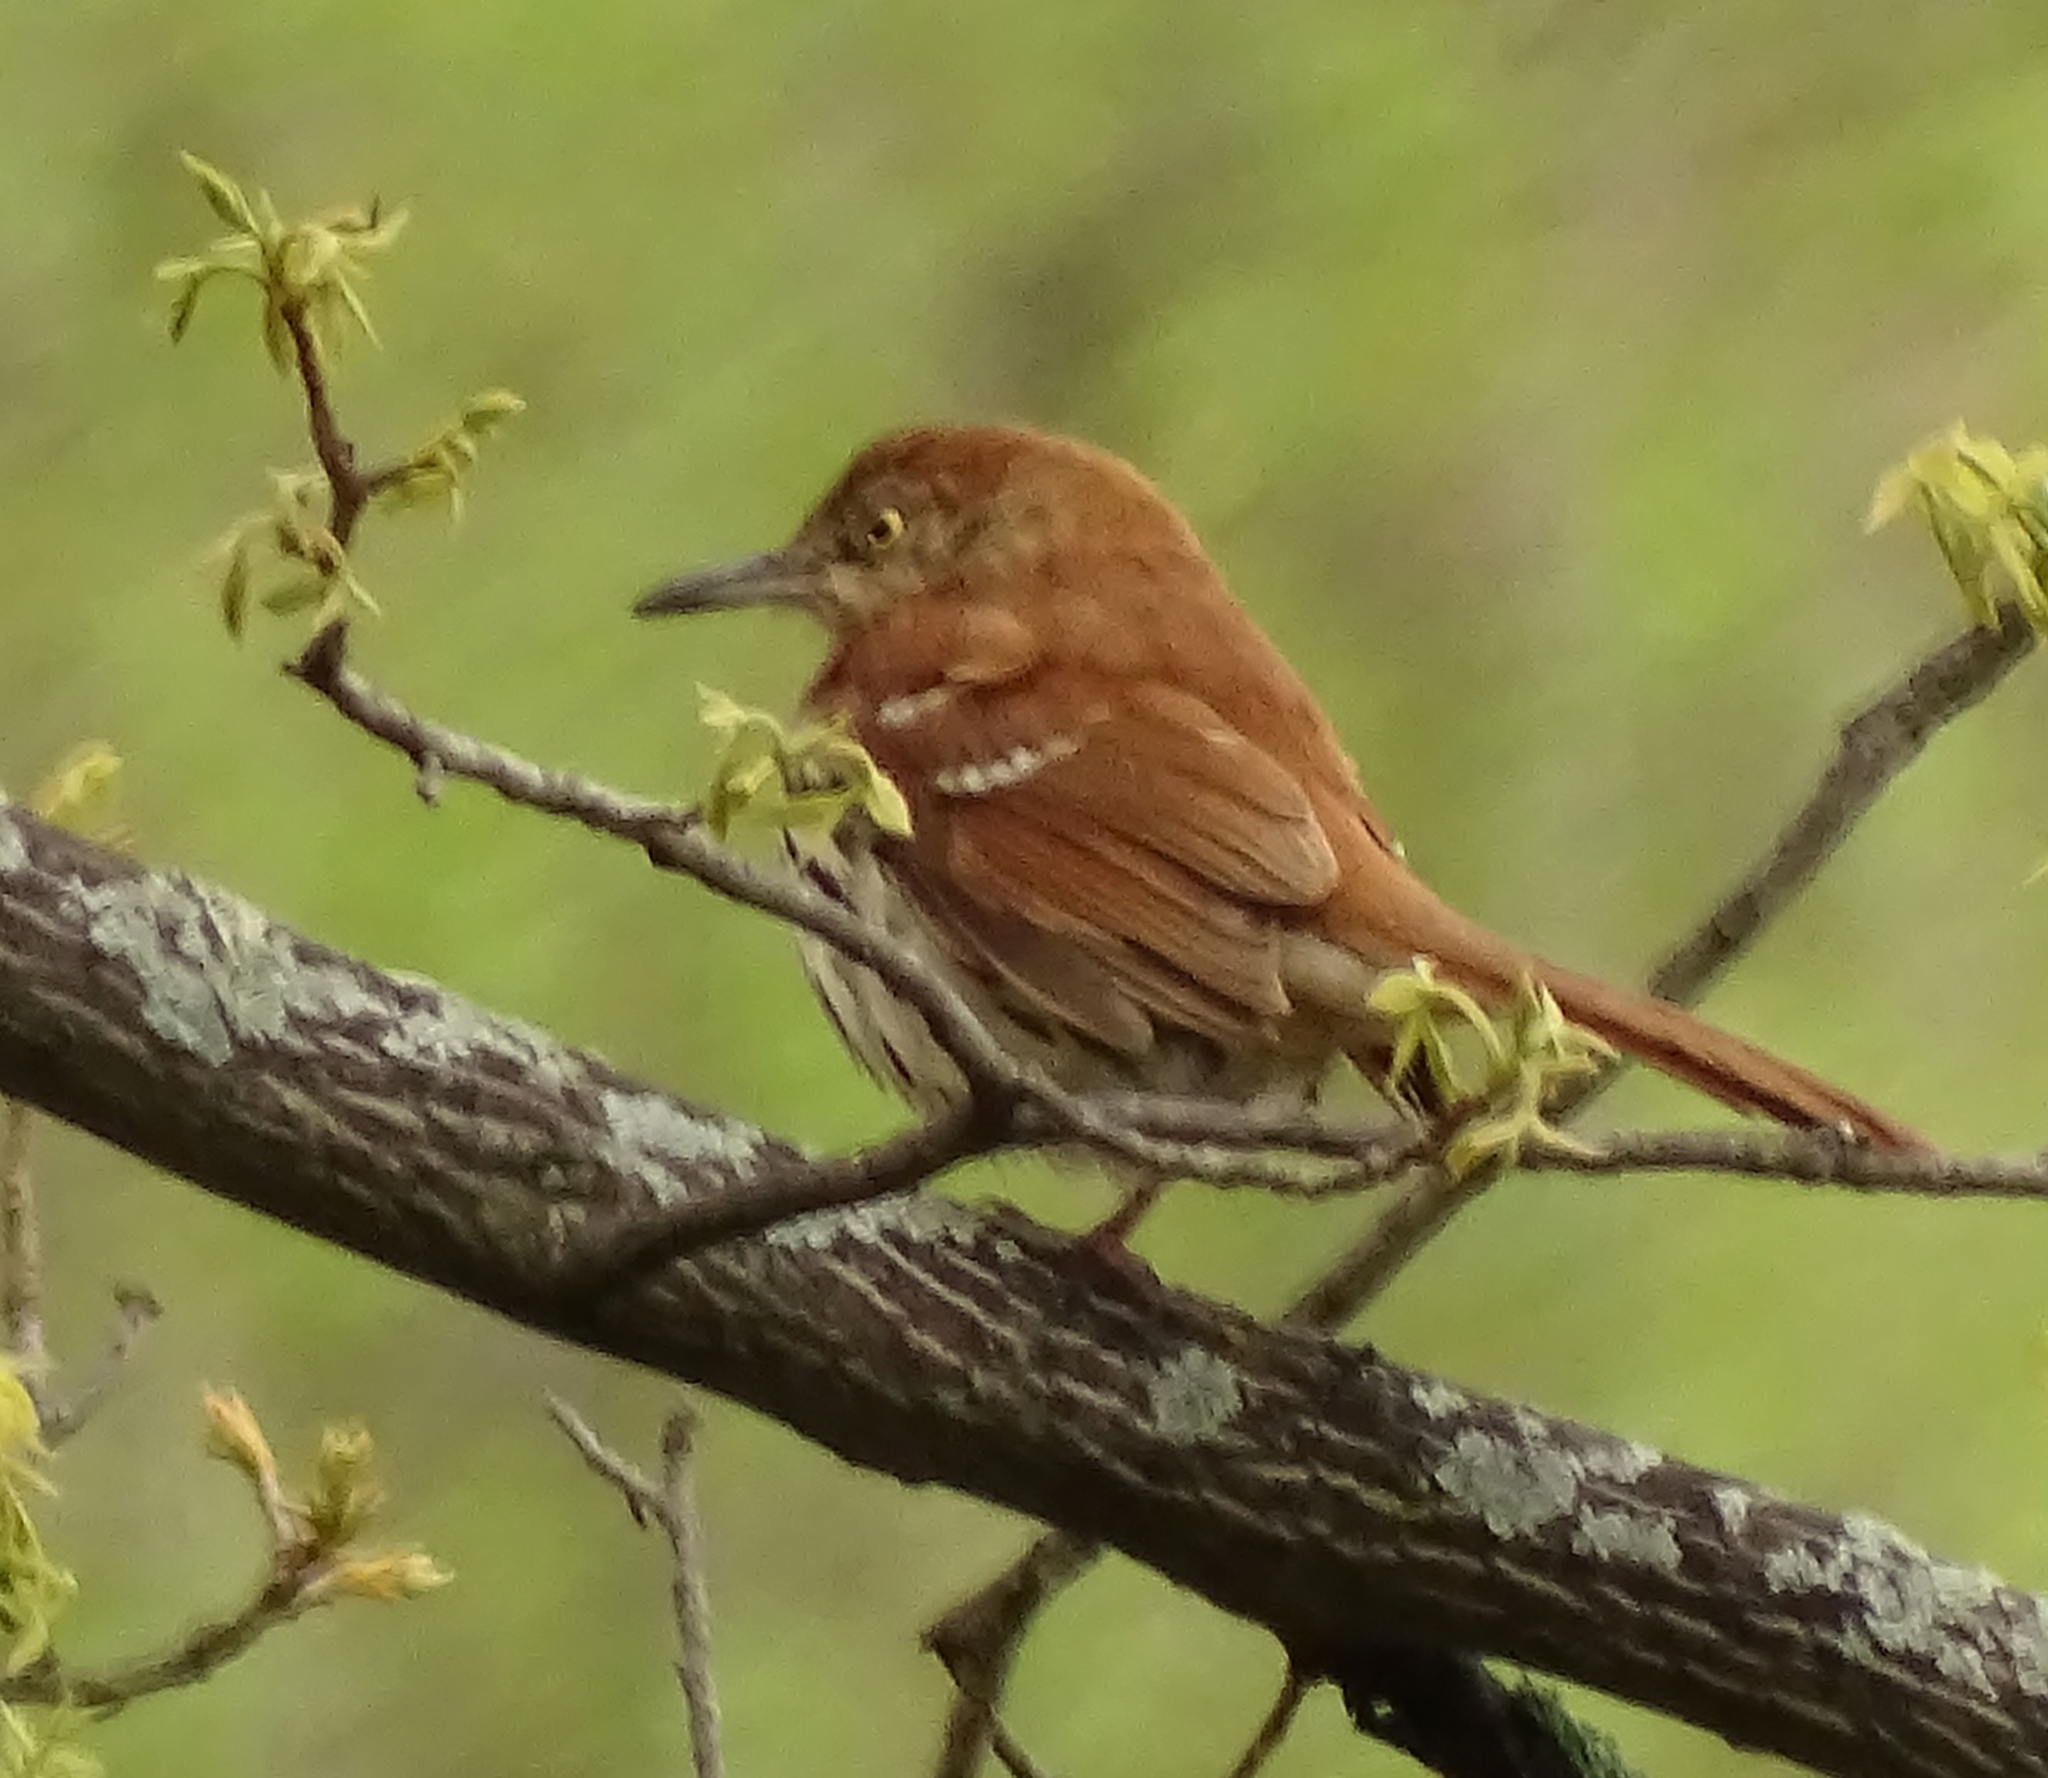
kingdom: Animalia
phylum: Chordata
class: Aves
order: Passeriformes
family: Mimidae
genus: Toxostoma
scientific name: Toxostoma rufum
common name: Brown thrasher
